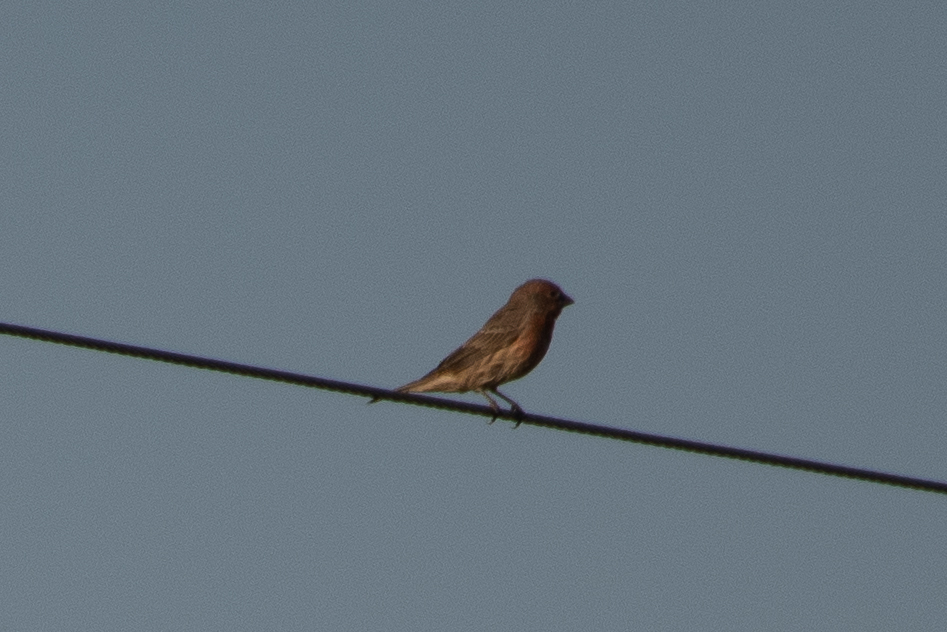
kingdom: Animalia
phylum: Chordata
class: Aves
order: Passeriformes
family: Fringillidae
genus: Haemorhous
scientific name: Haemorhous mexicanus
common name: House finch
